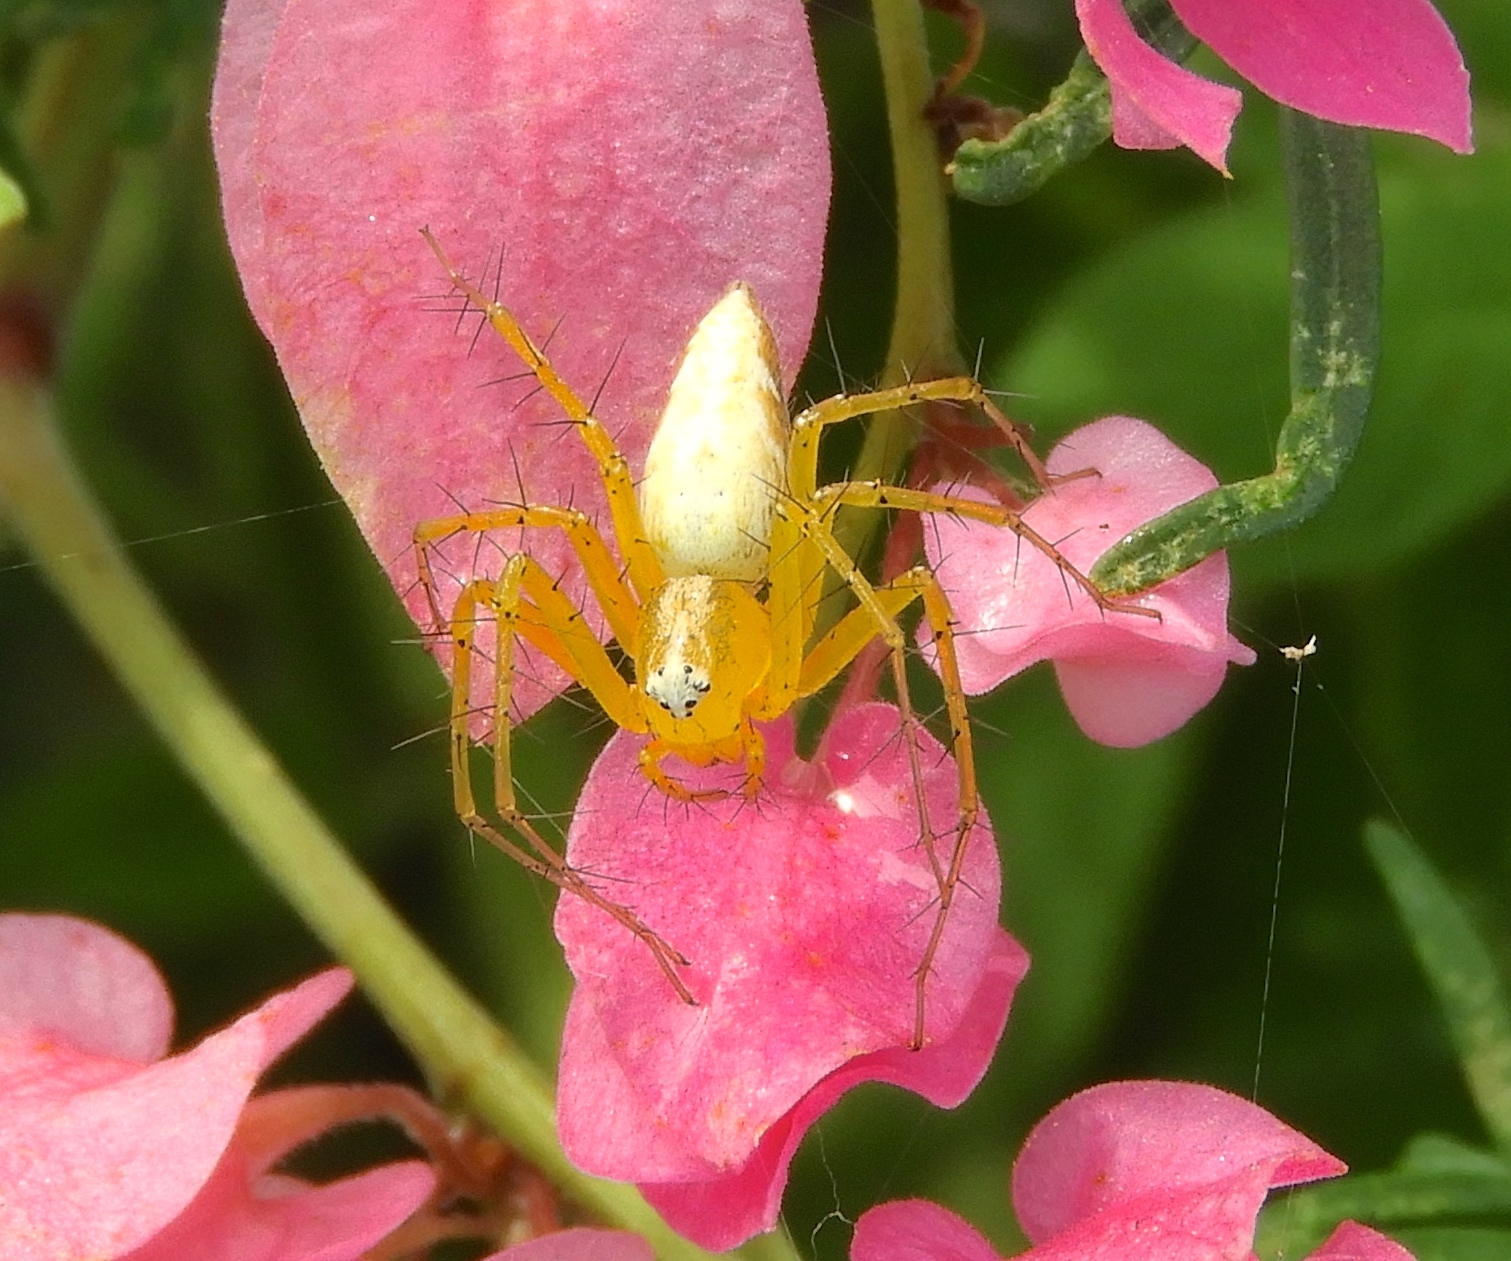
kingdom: Animalia
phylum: Arthropoda
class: Arachnida
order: Araneae
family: Oxyopidae
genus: Oxyopes
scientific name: Oxyopes flavus
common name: Lynx spiders
